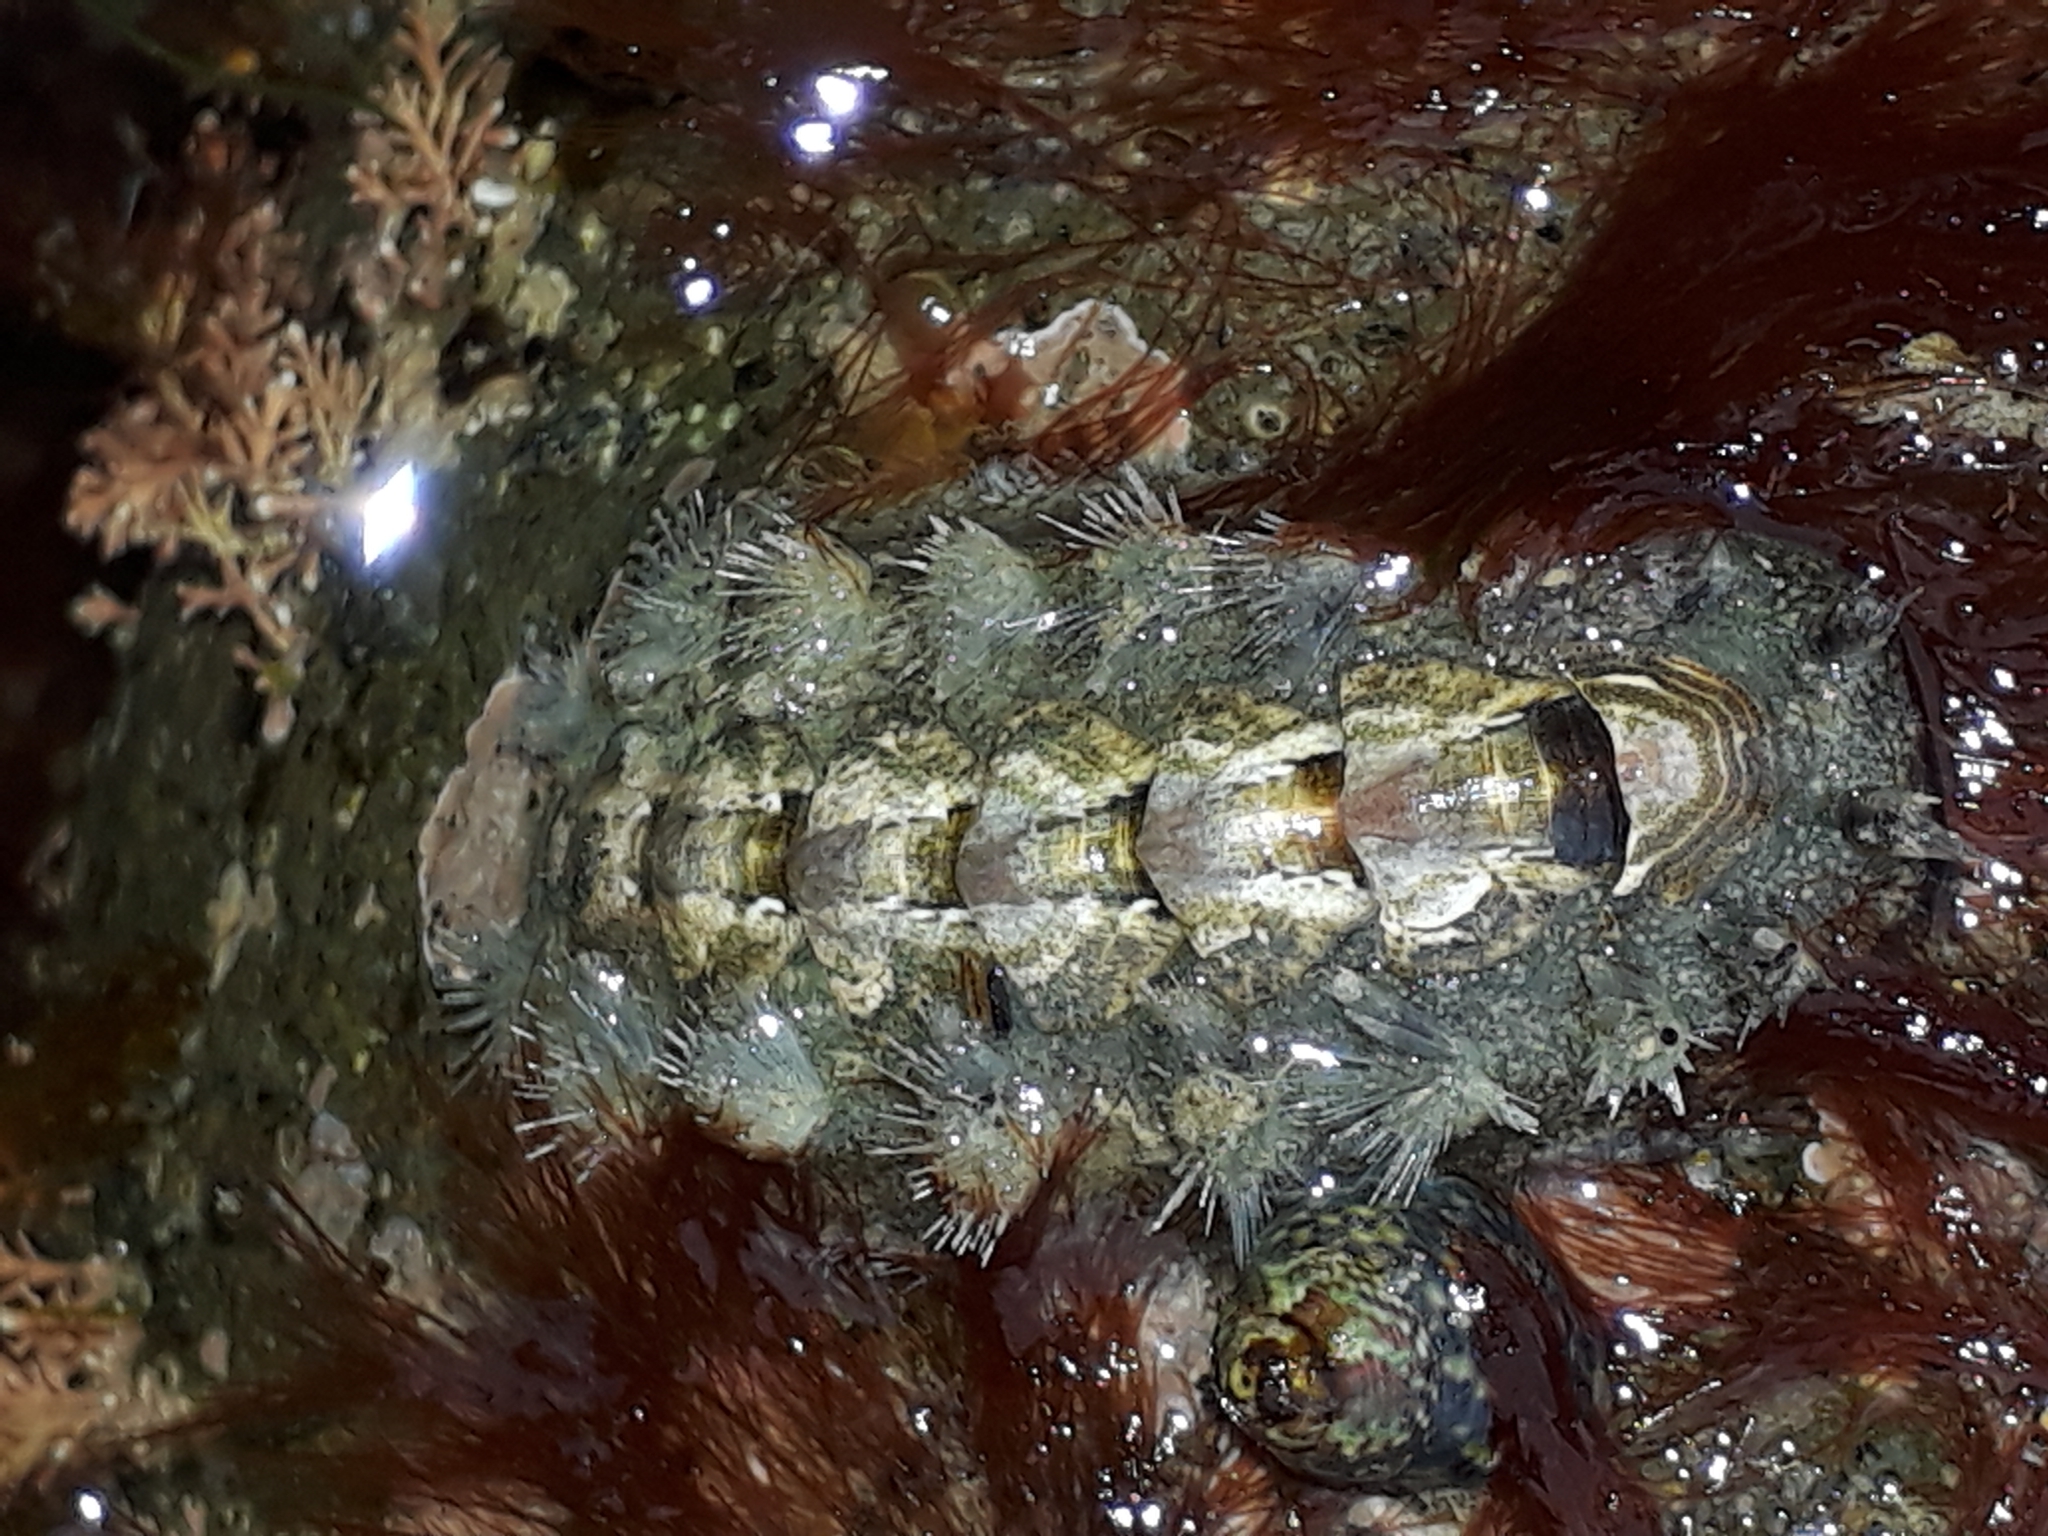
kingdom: Animalia
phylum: Mollusca
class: Polyplacophora
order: Chitonida
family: Acanthochitonidae
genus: Acanthochitona
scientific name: Acanthochitona zelandica
